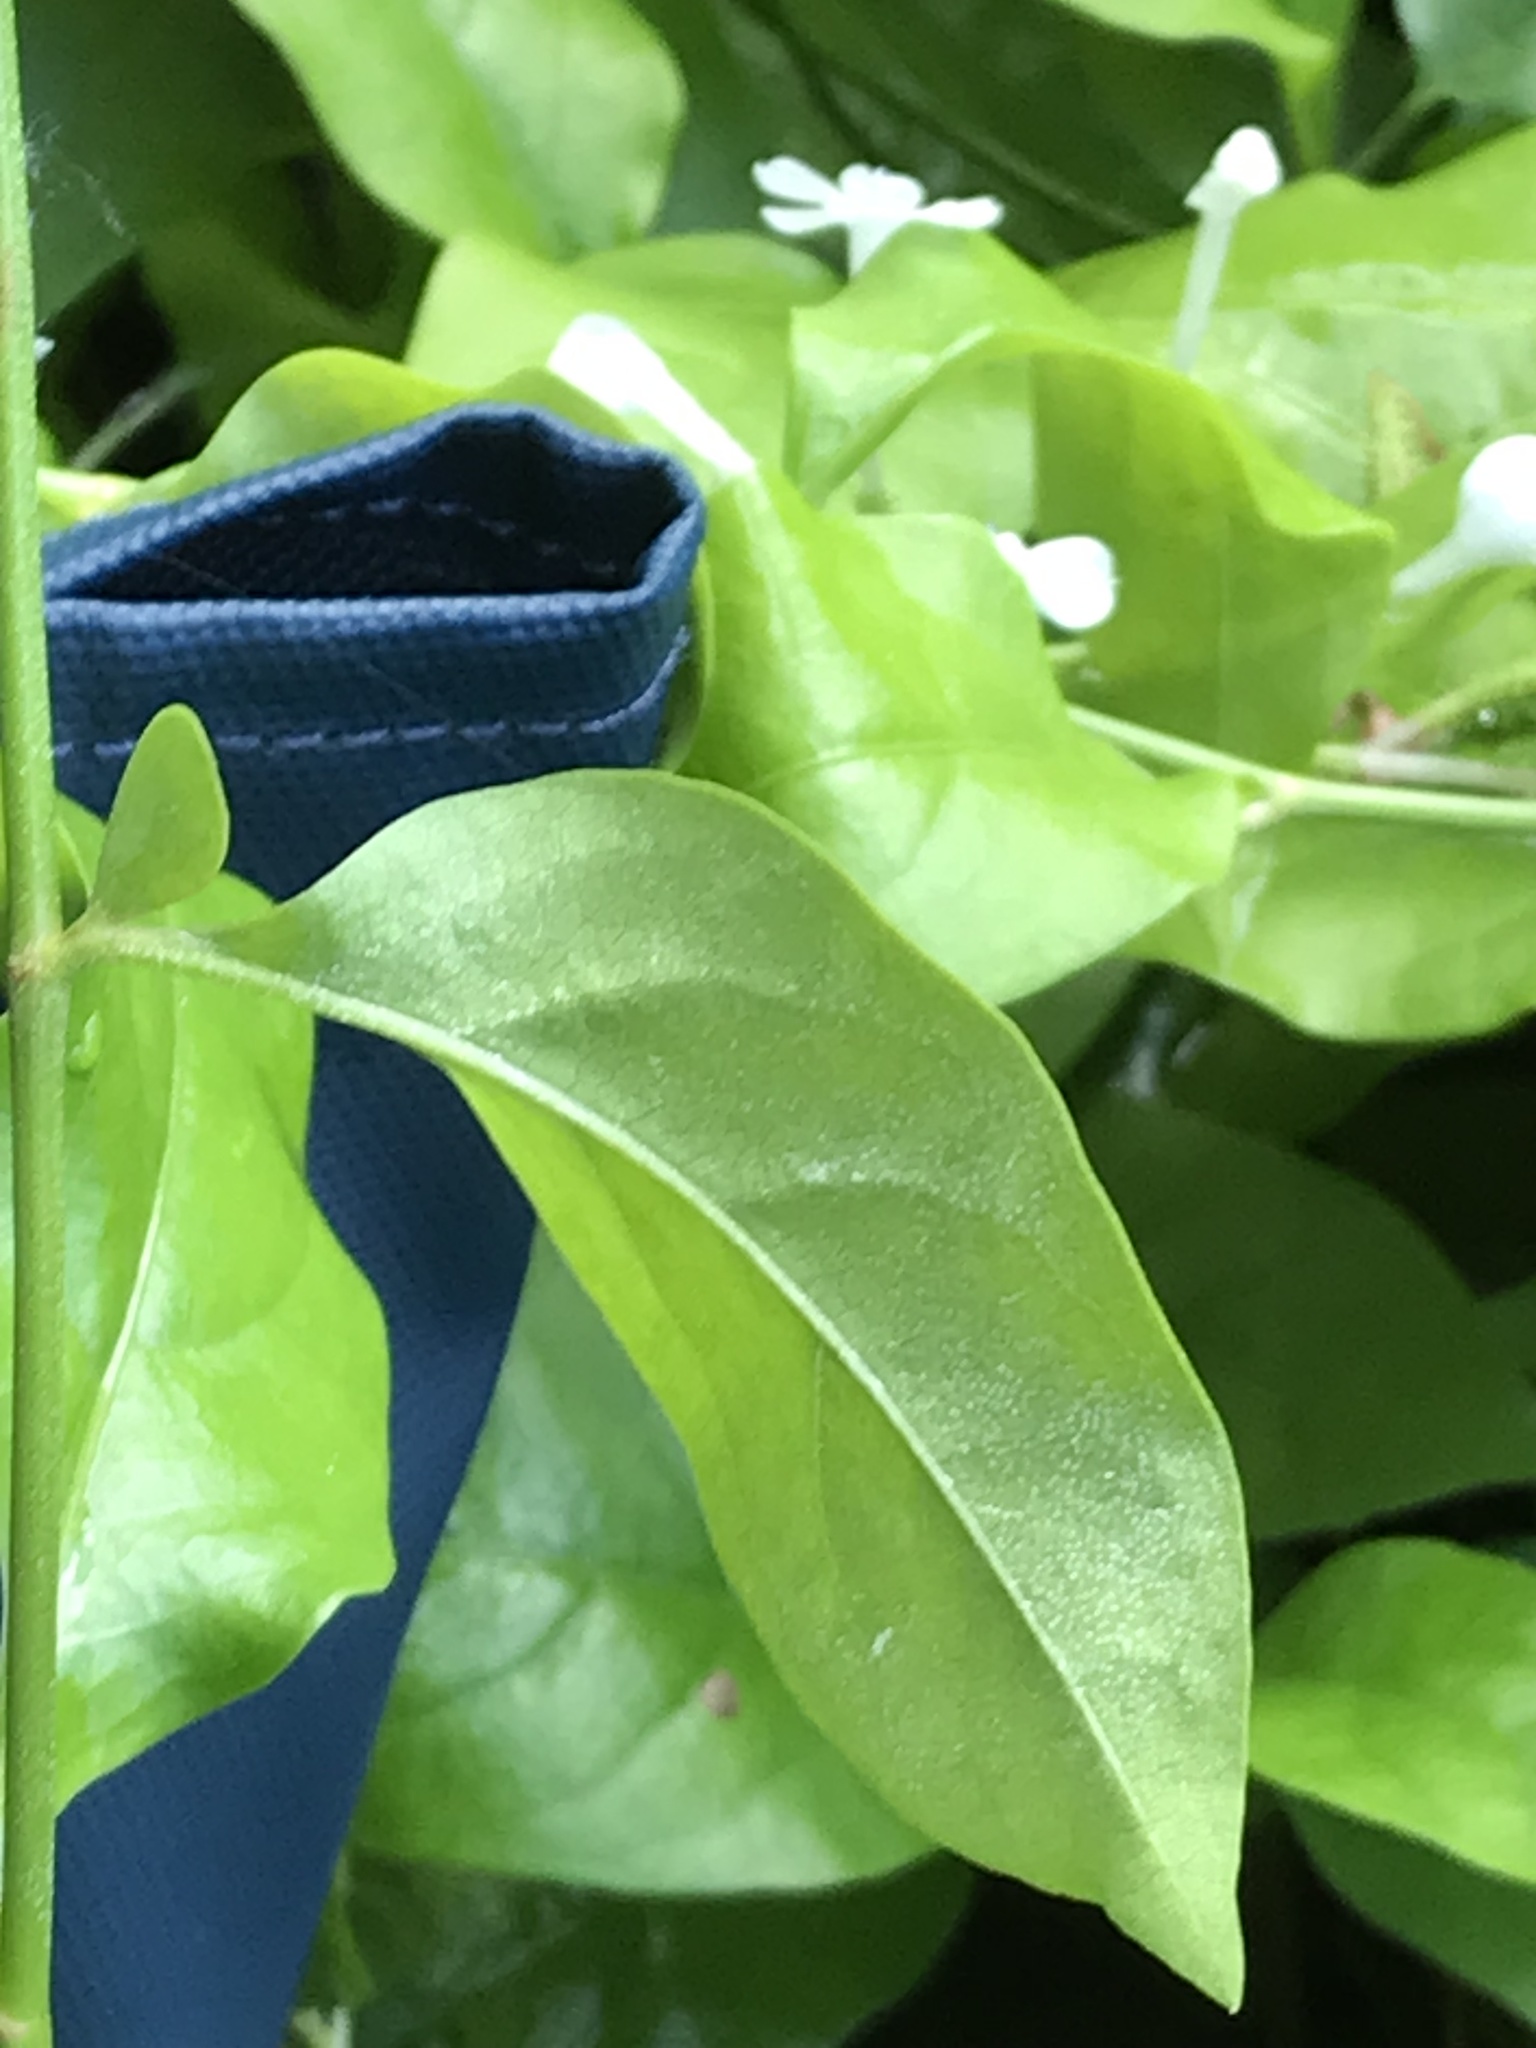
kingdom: Plantae
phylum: Tracheophyta
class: Magnoliopsida
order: Caryophyllales
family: Plumbaginaceae
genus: Plumbago
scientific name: Plumbago zeylanica
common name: Doctorbush
